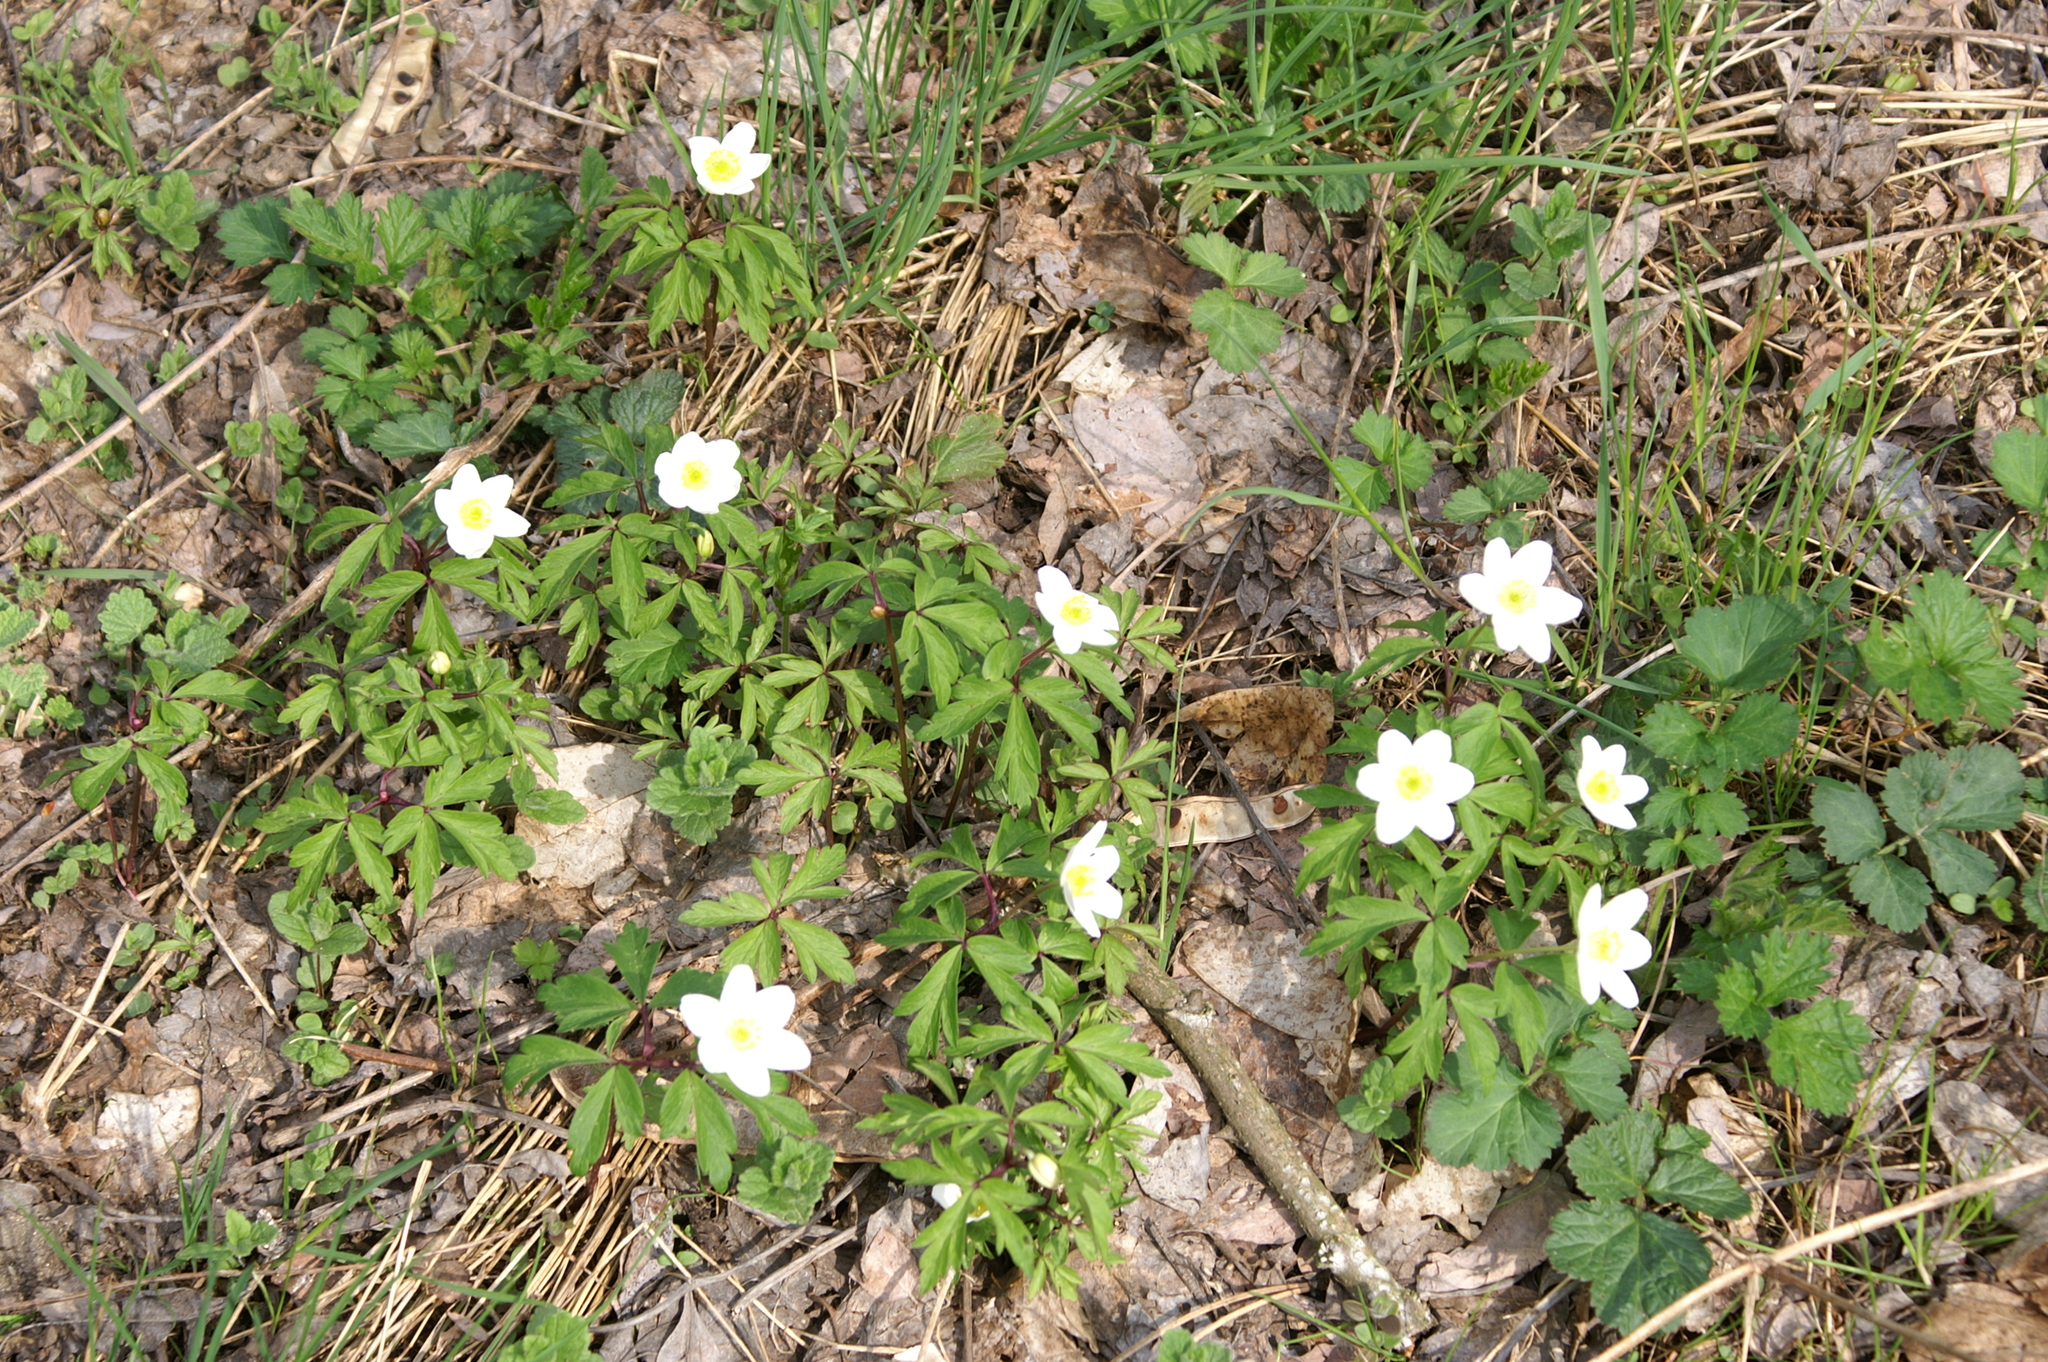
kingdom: Plantae
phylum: Tracheophyta
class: Magnoliopsida
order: Ranunculales
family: Ranunculaceae
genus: Anemone
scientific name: Anemone nemorosa
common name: Wood anemone
